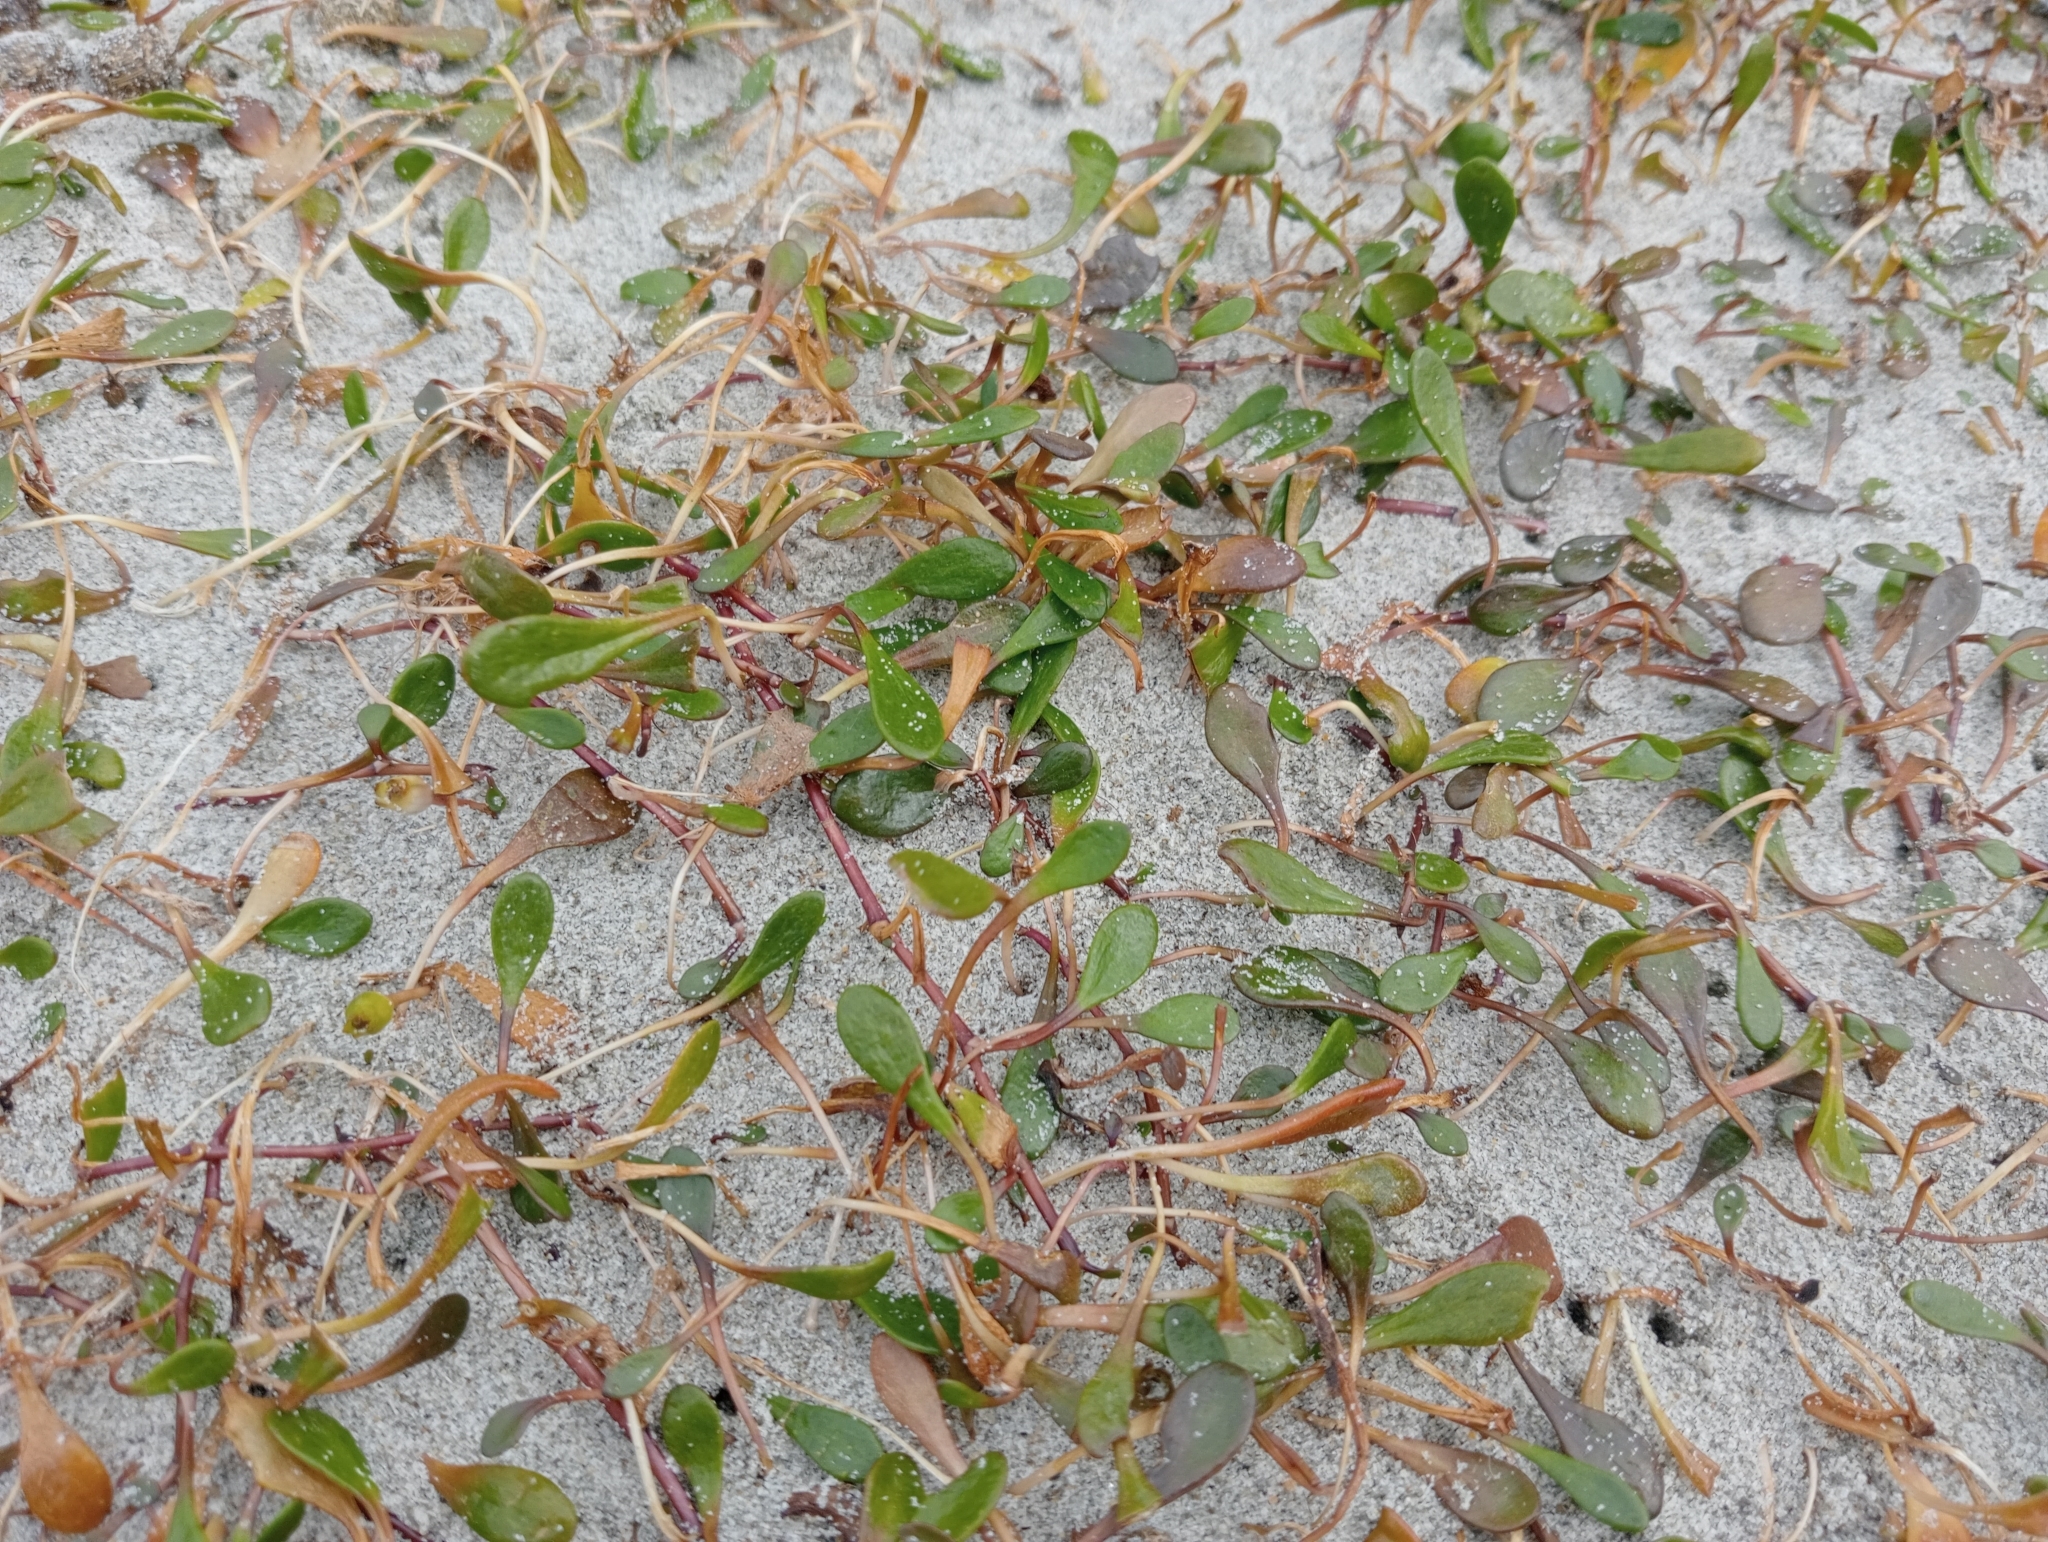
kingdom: Plantae
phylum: Tracheophyta
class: Magnoliopsida
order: Asterales
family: Goodeniaceae
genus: Goodenia
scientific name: Goodenia radicans
